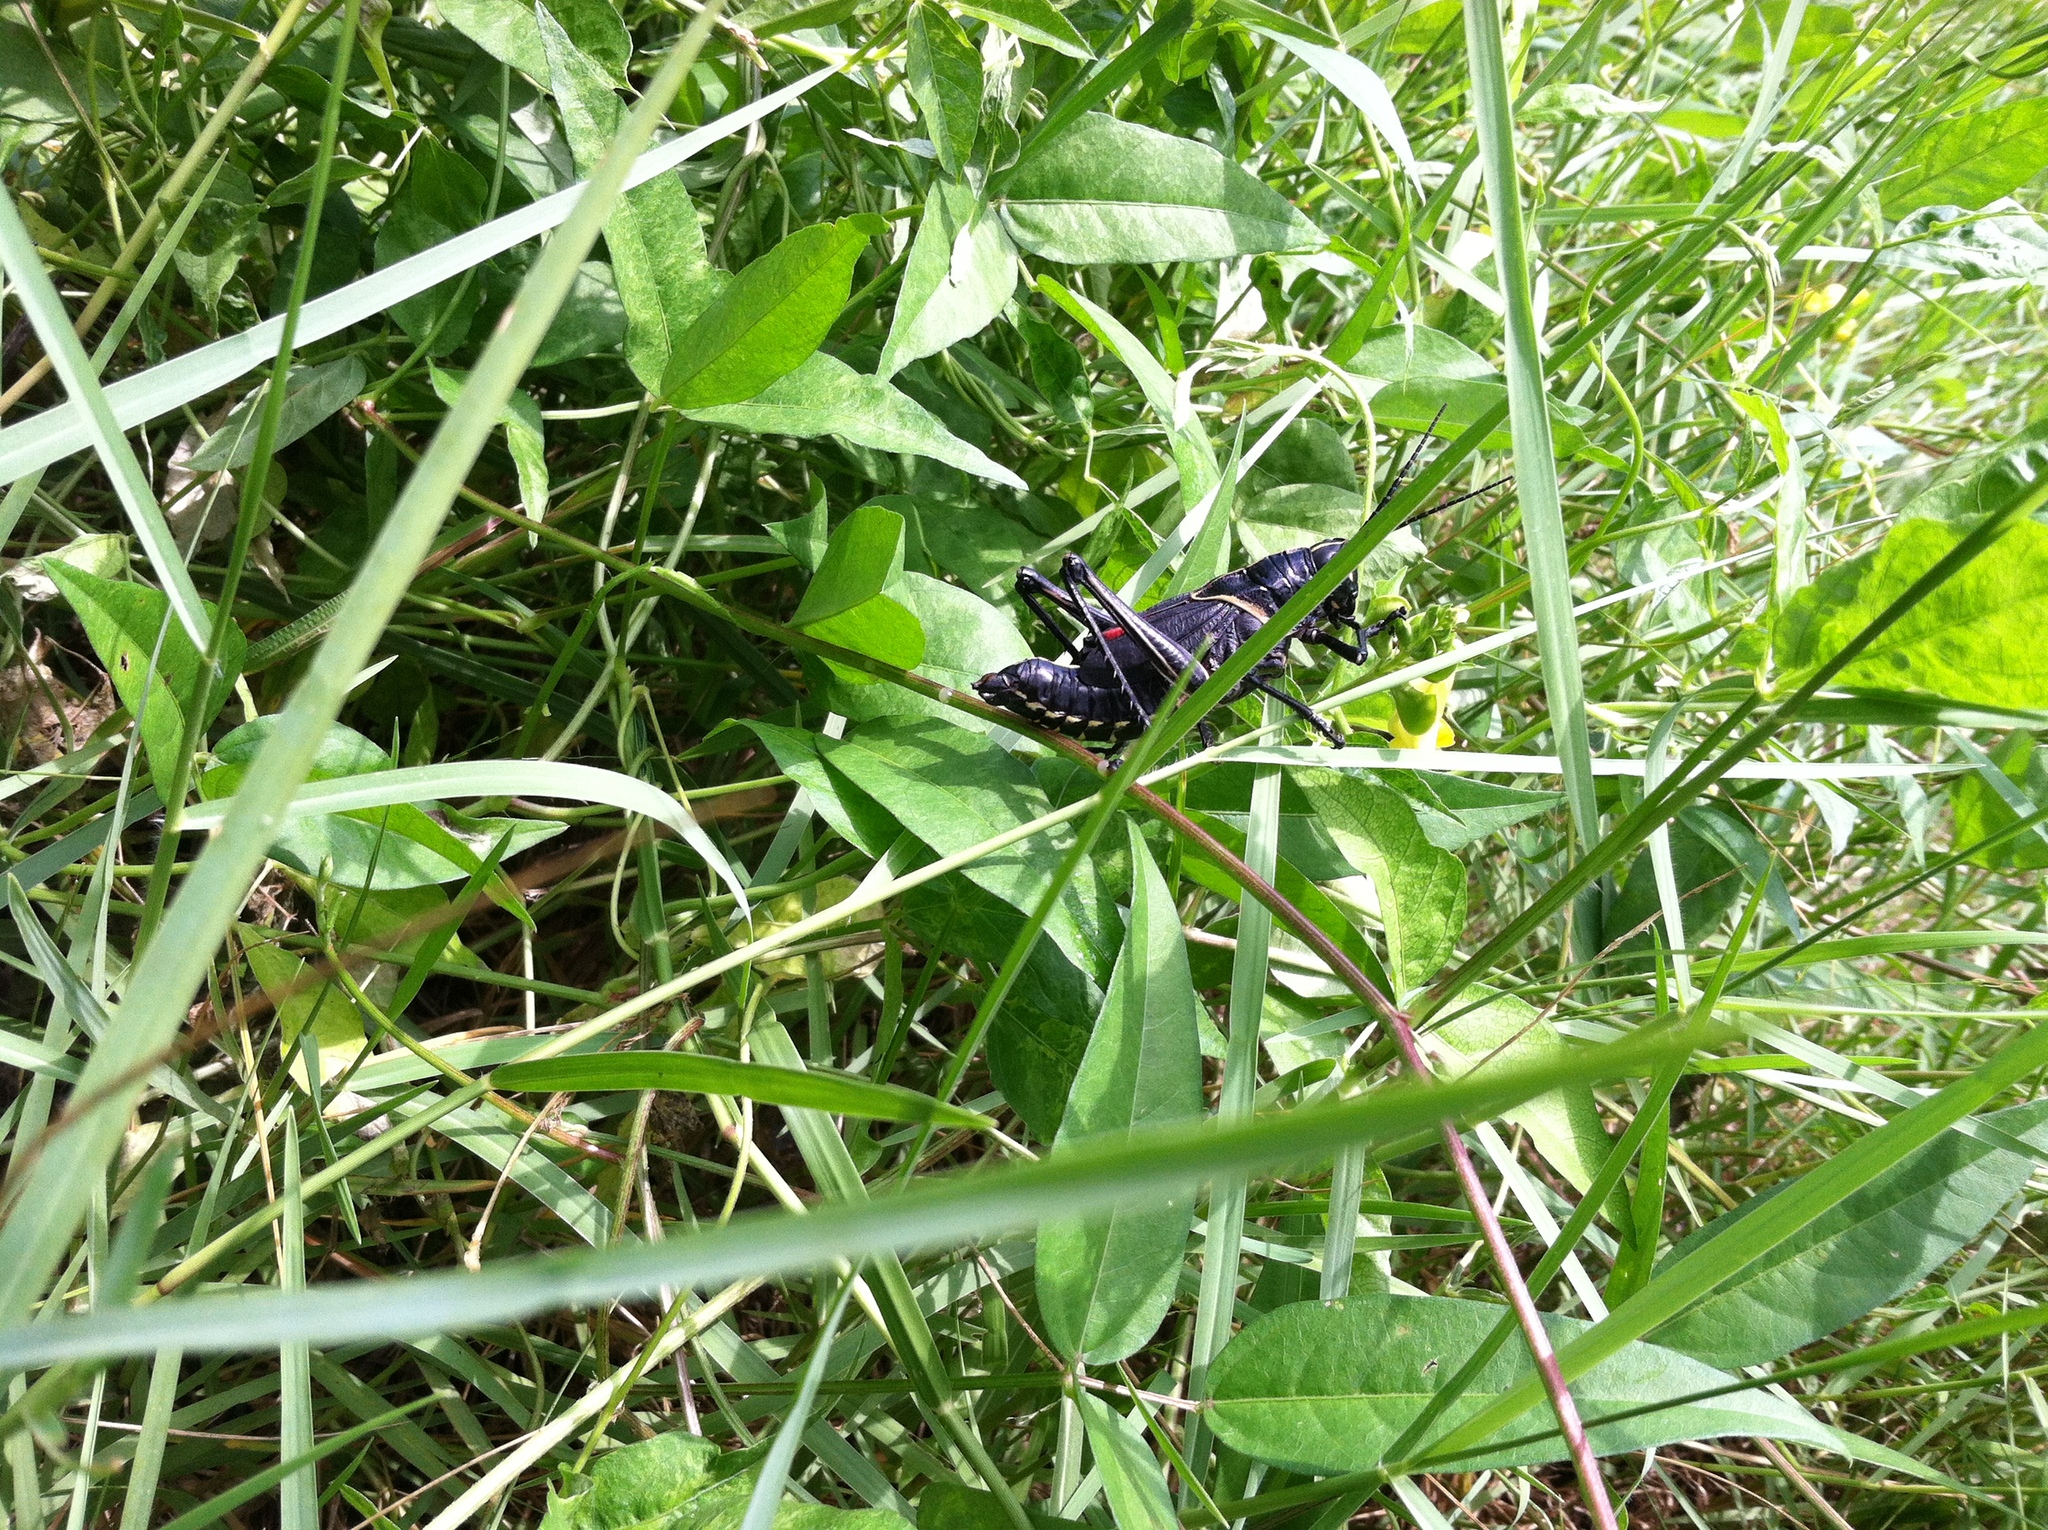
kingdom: Animalia
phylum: Arthropoda
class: Insecta
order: Orthoptera
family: Romaleidae
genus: Romalea
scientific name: Romalea microptera
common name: Eastern lubber grasshopper
